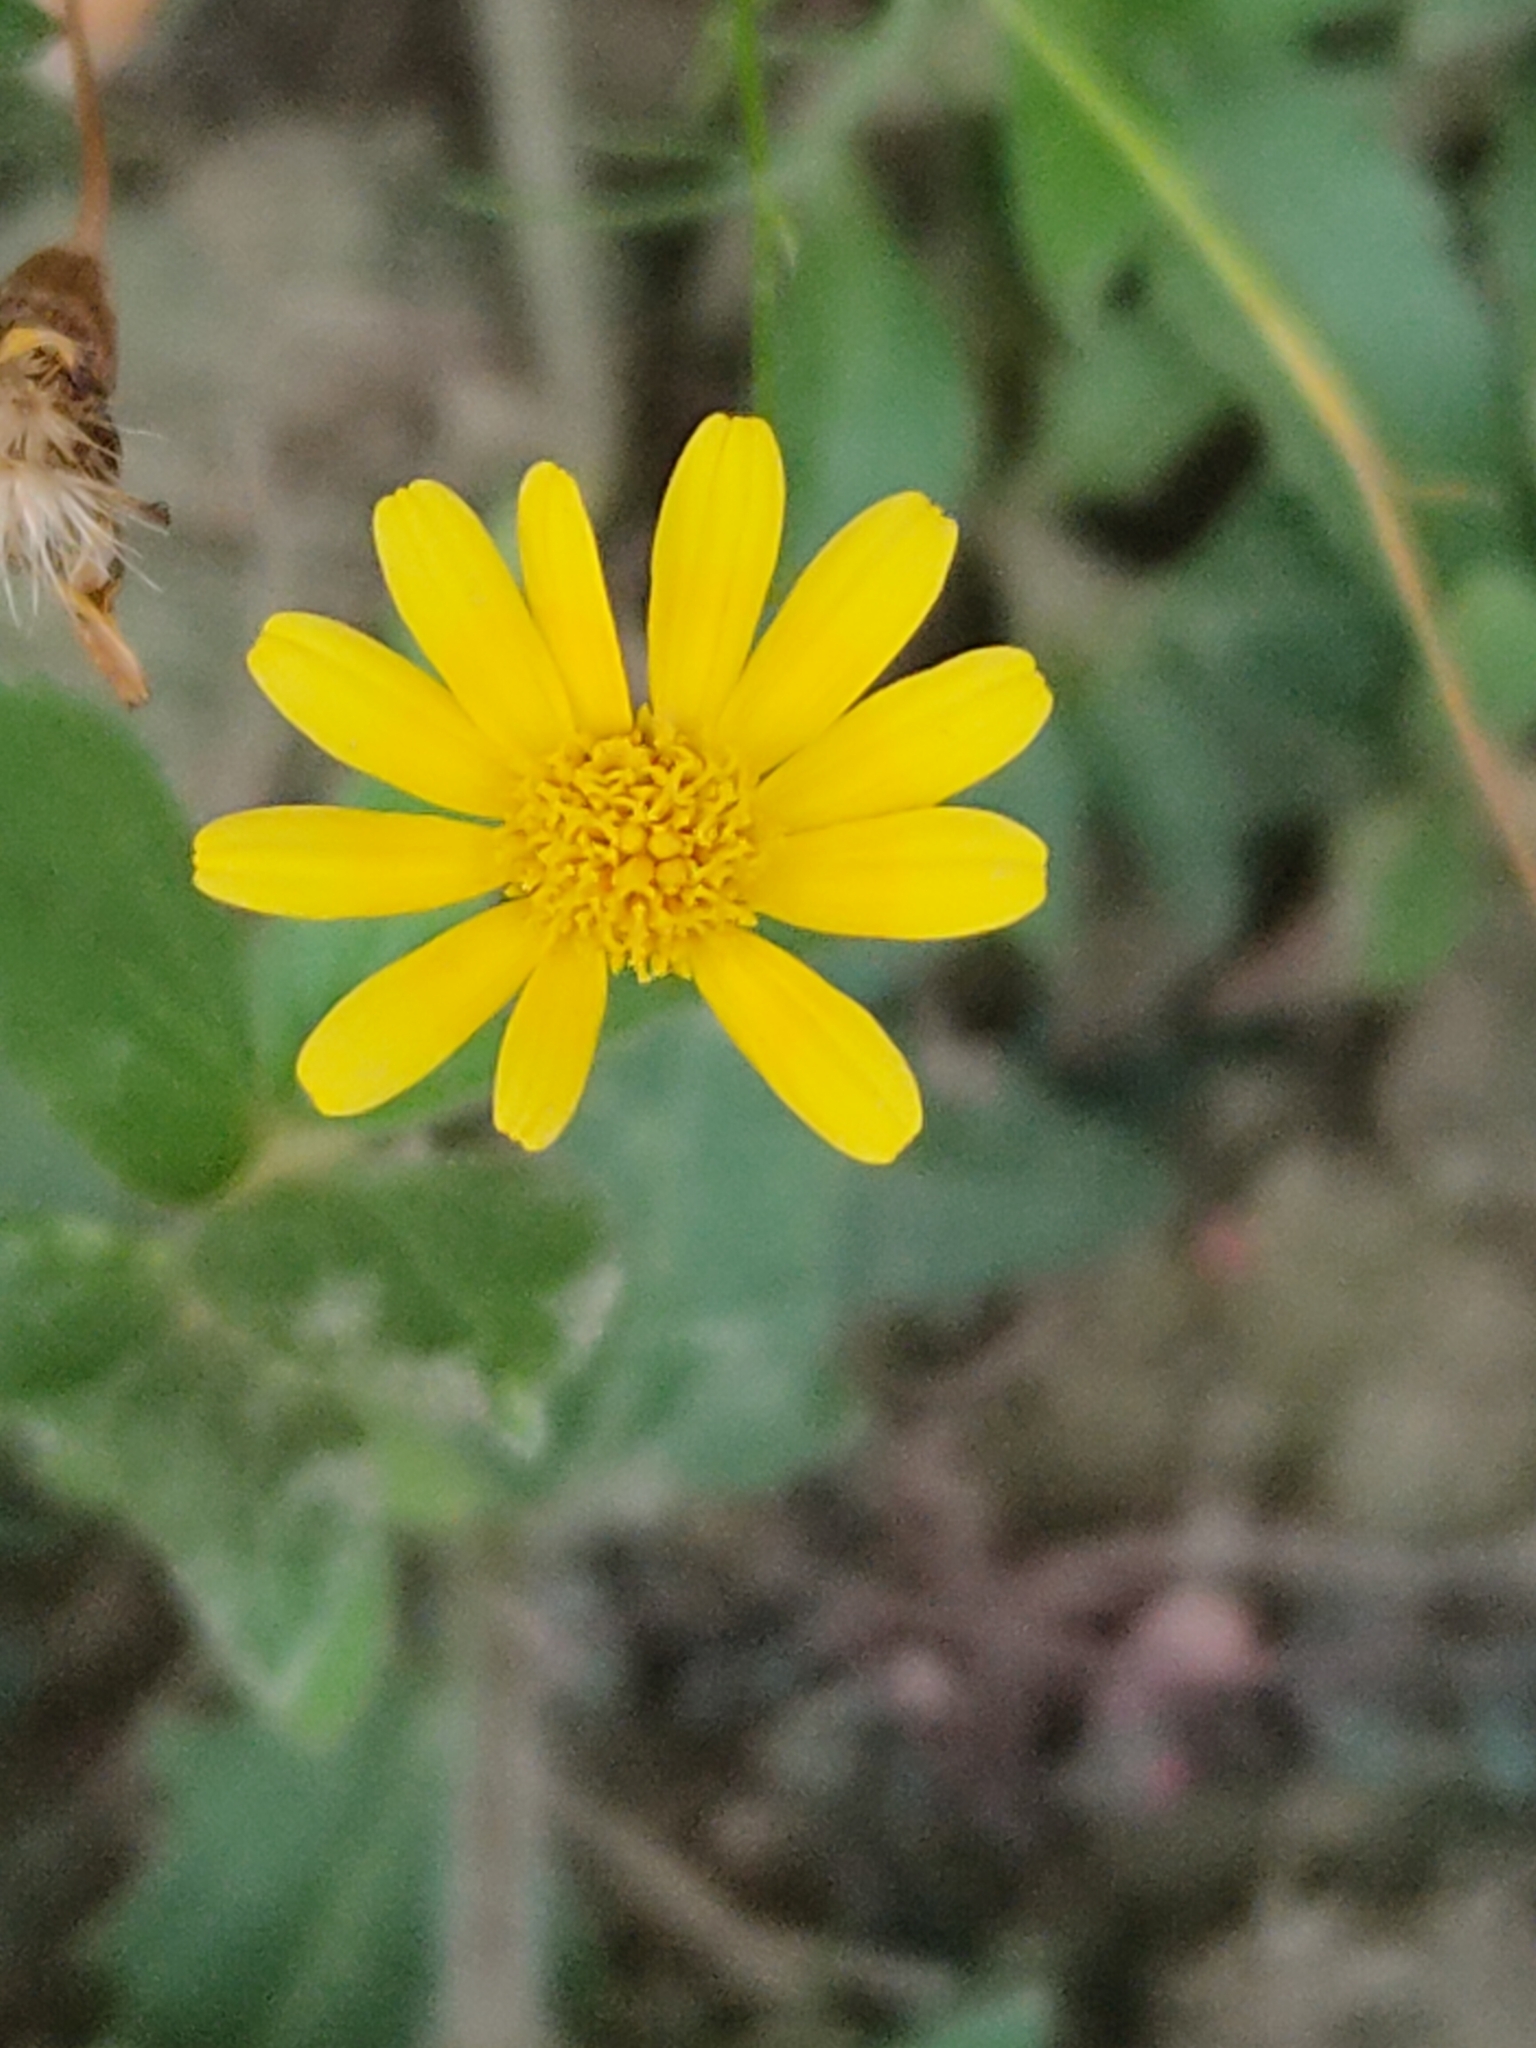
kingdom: Plantae
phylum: Tracheophyta
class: Magnoliopsida
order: Asterales
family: Asteraceae
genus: Thymophylla
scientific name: Thymophylla tenuiloba
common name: Dahlberg's daisy
